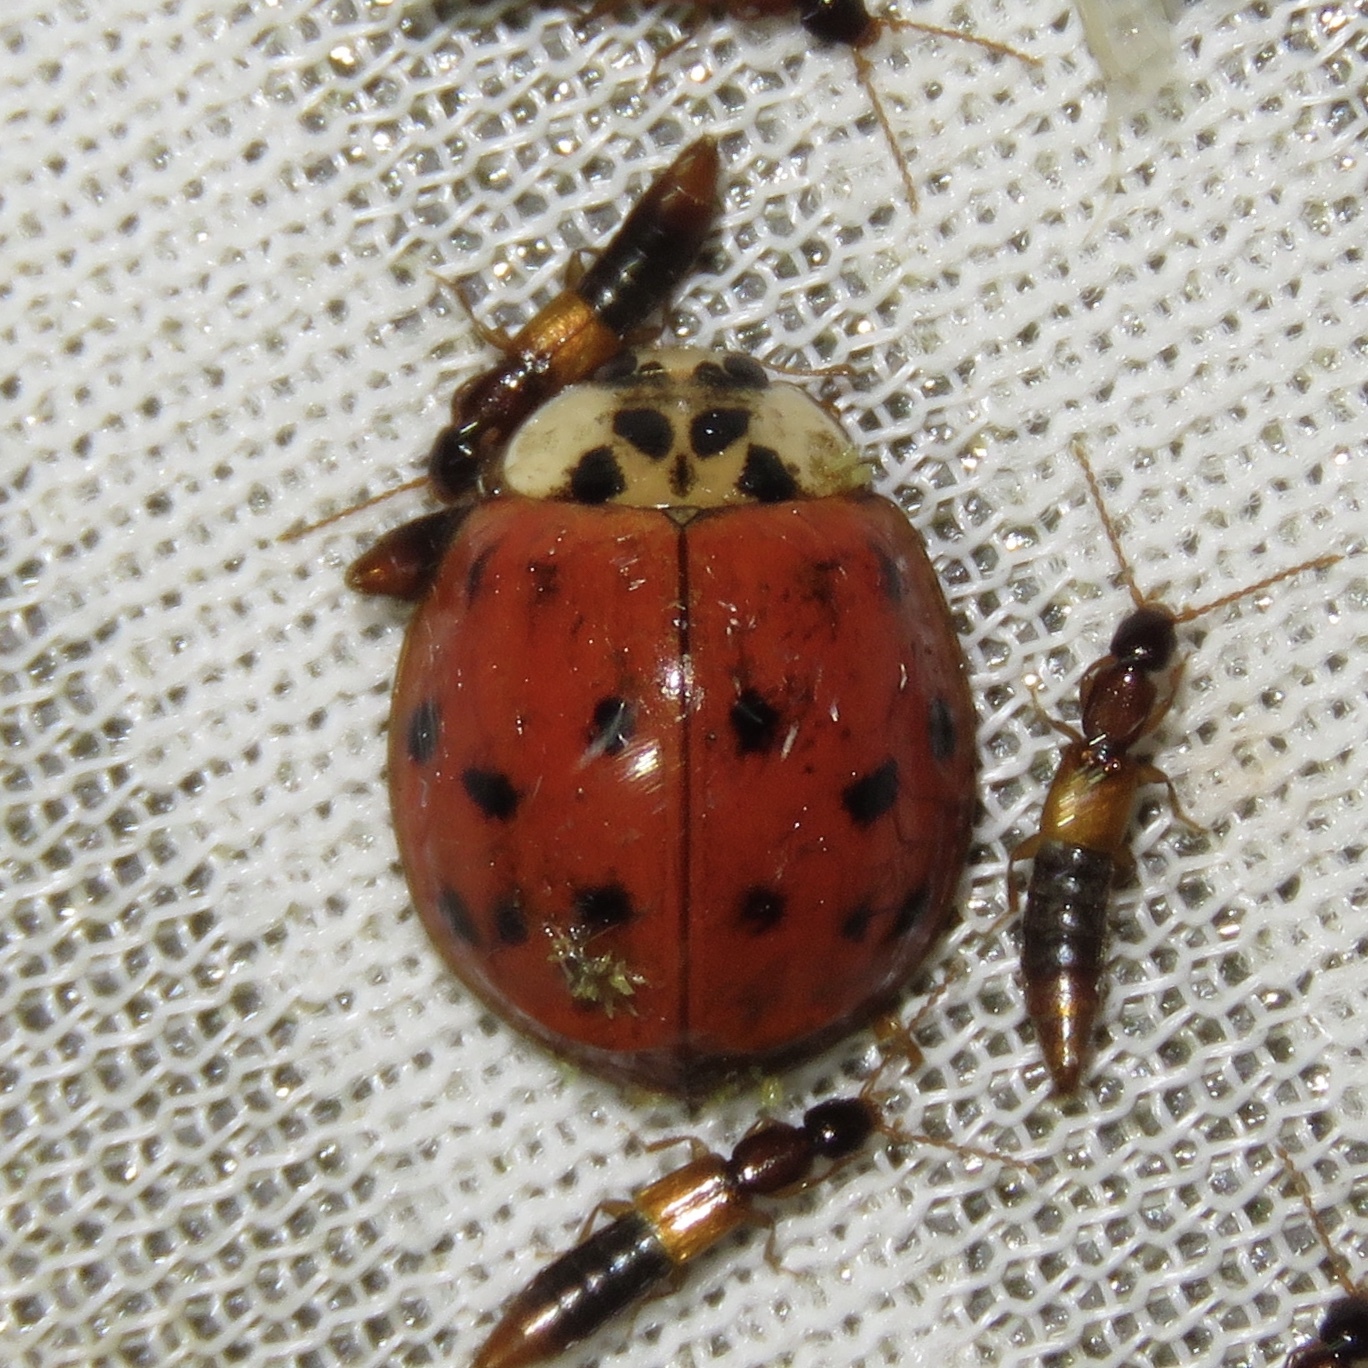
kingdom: Animalia
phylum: Arthropoda
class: Insecta
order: Coleoptera
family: Coccinellidae
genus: Harmonia
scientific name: Harmonia axyridis
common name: Harlequin ladybird
